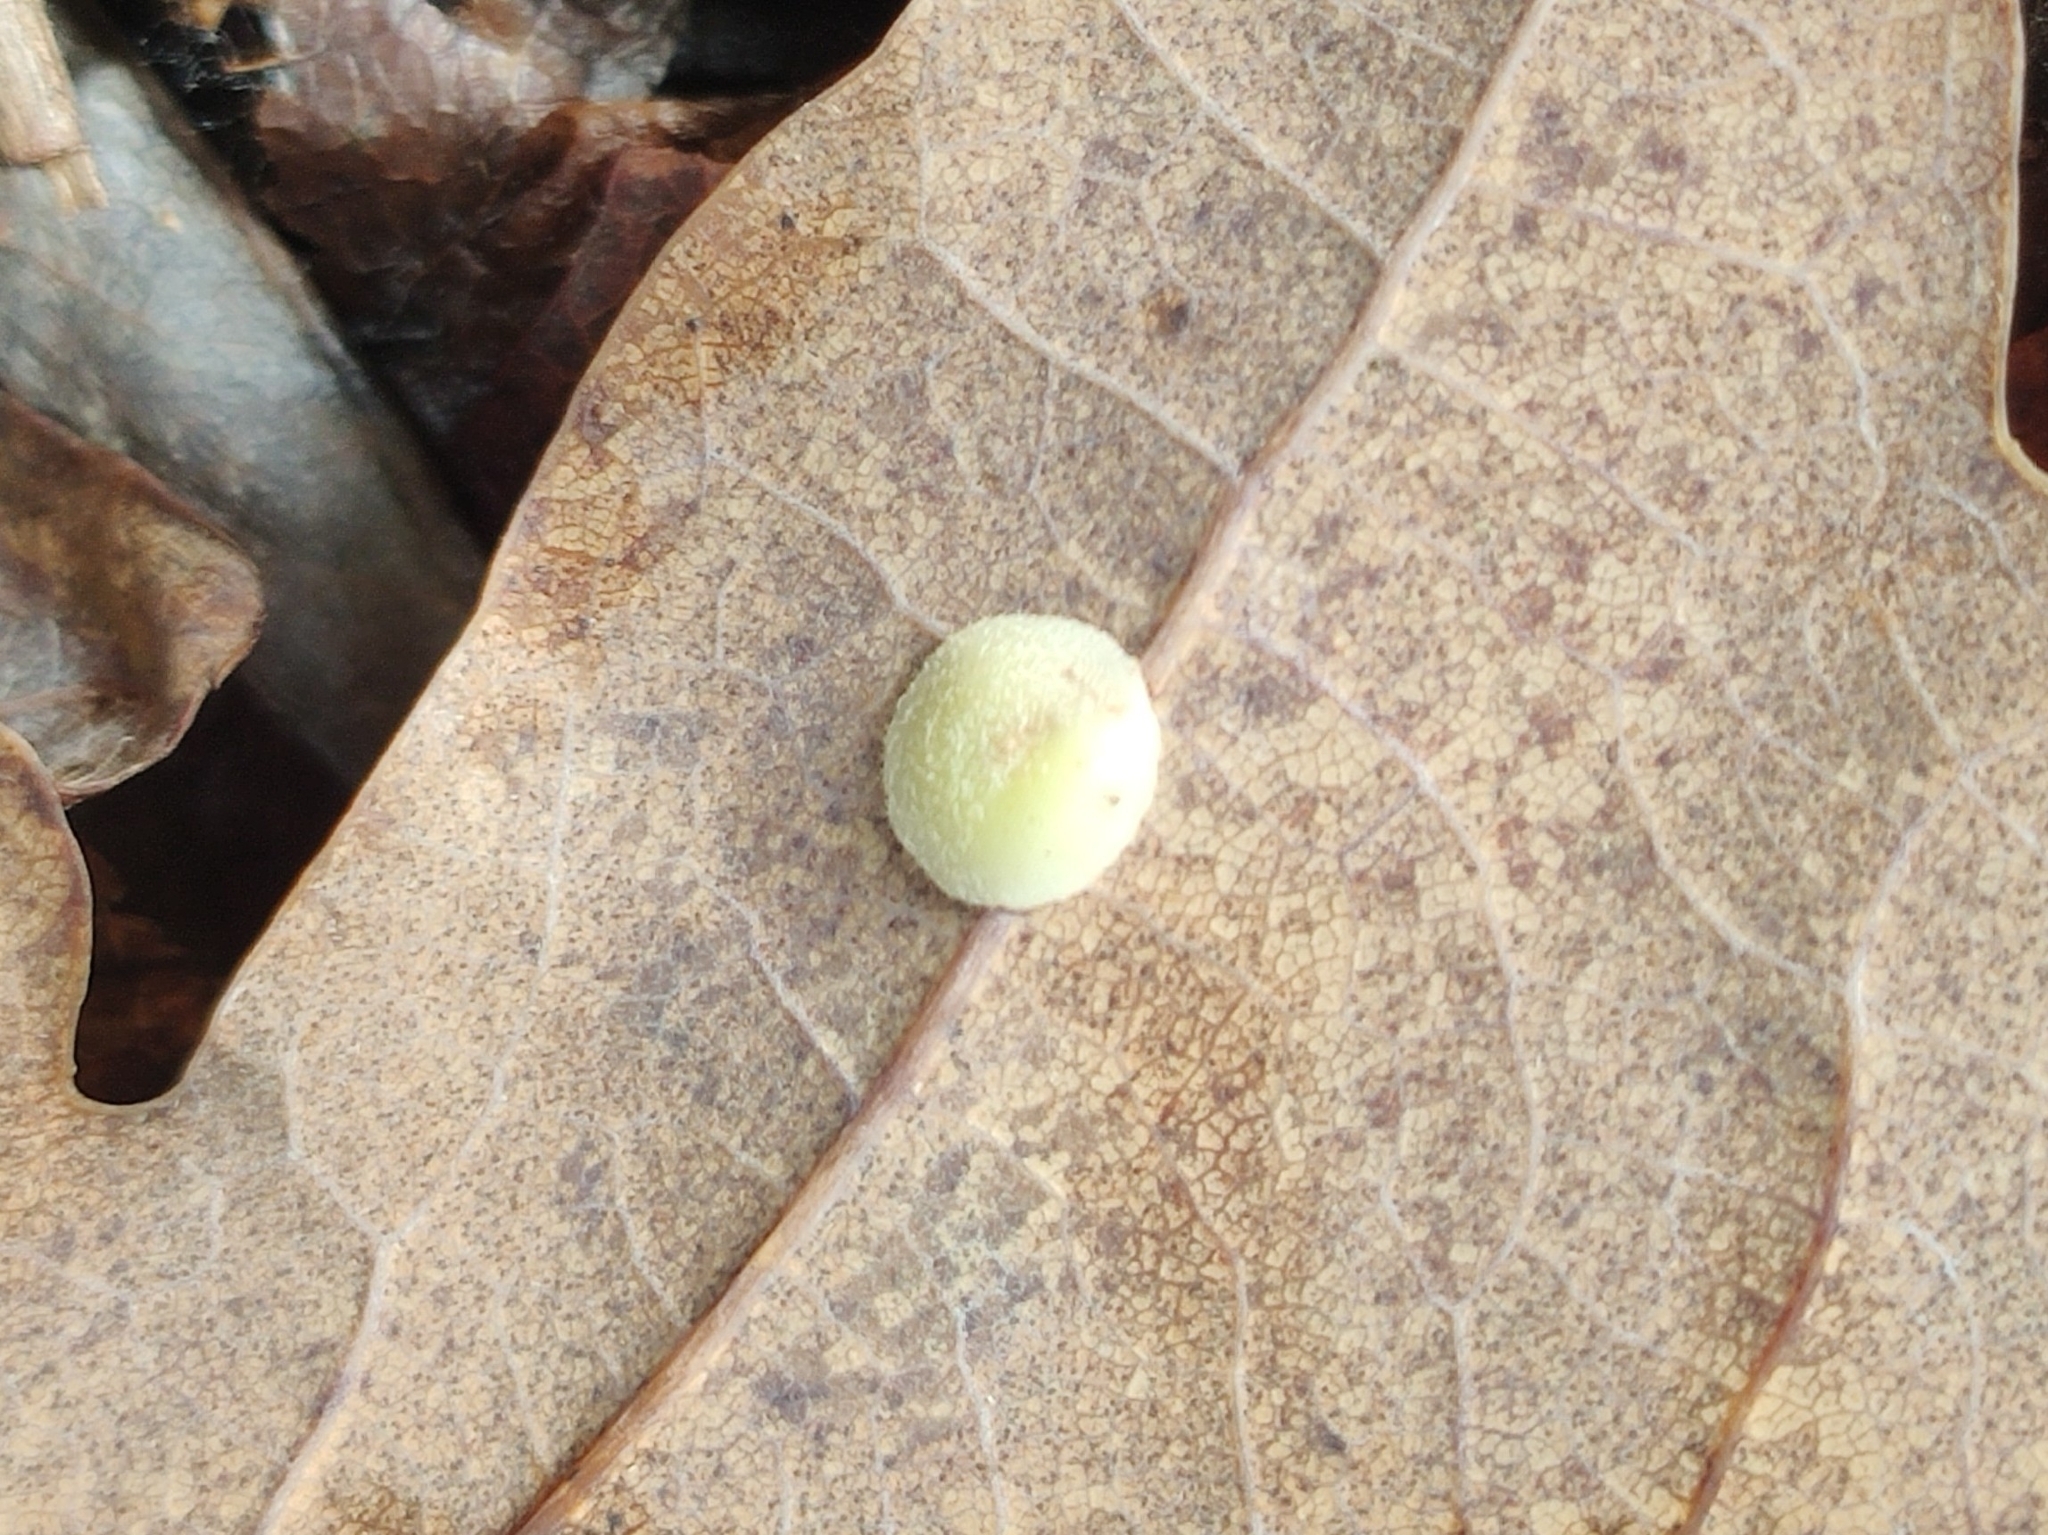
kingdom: Animalia
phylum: Arthropoda
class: Insecta
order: Hymenoptera
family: Cynipidae
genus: Neuroterus
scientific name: Neuroterus quercusbaccarum
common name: Common spangle gall
